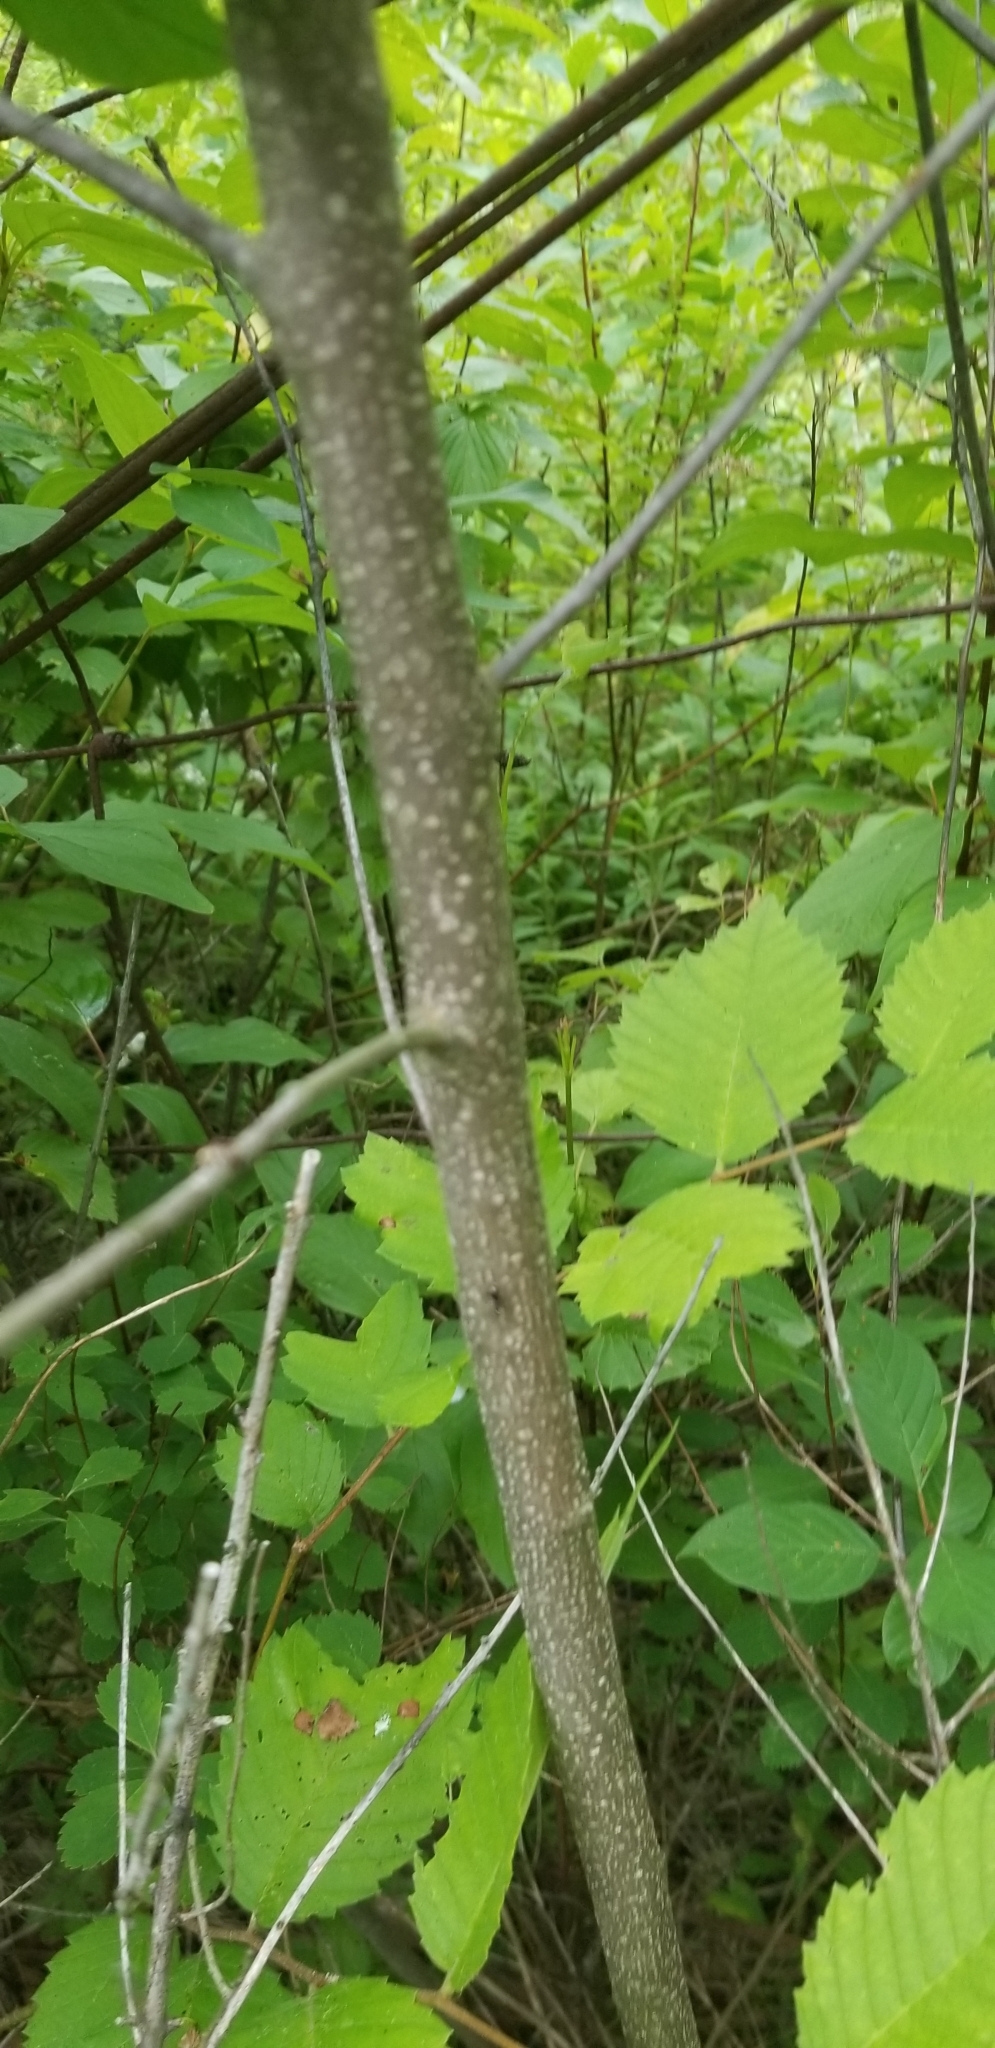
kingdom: Plantae
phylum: Tracheophyta
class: Magnoliopsida
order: Rosales
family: Rhamnaceae
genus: Frangula
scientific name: Frangula alnus
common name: Alder buckthorn
